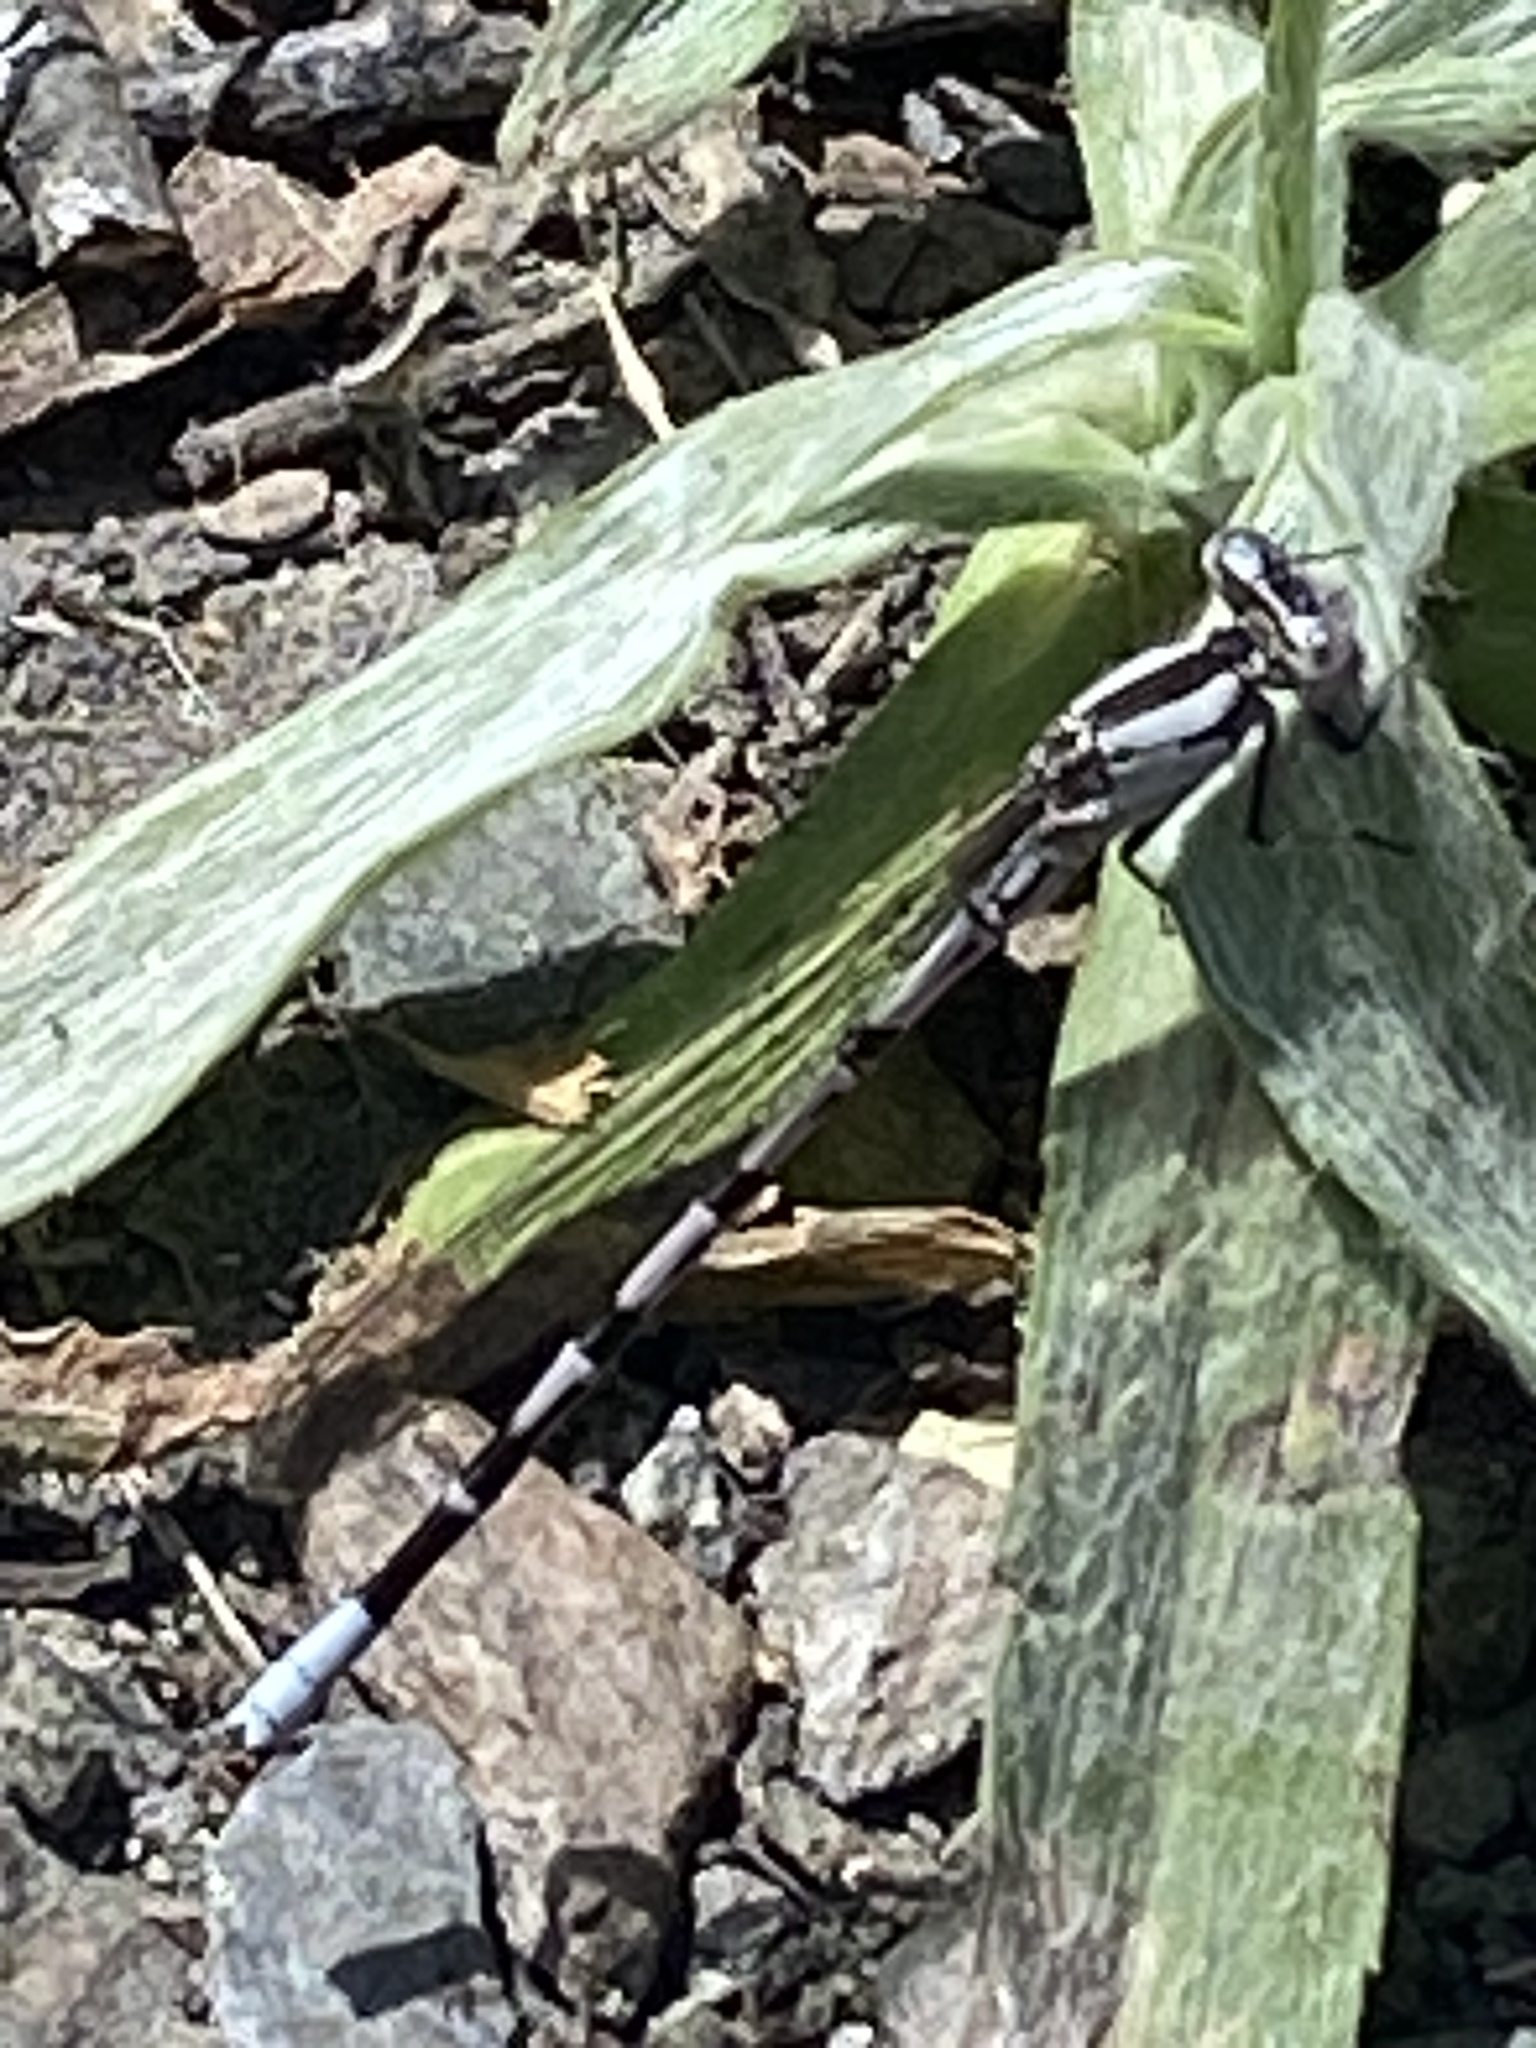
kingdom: Animalia
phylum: Arthropoda
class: Insecta
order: Odonata
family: Coenagrionidae
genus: Argia
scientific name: Argia vivida
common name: Vivid dancer
